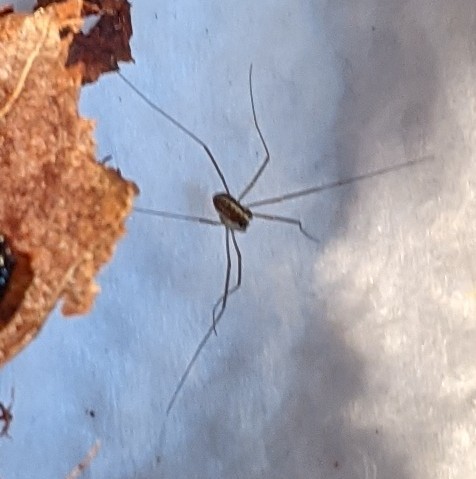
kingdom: Animalia
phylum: Arthropoda
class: Arachnida
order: Opiliones
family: Caddidae
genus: Caddo
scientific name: Caddo agilis
